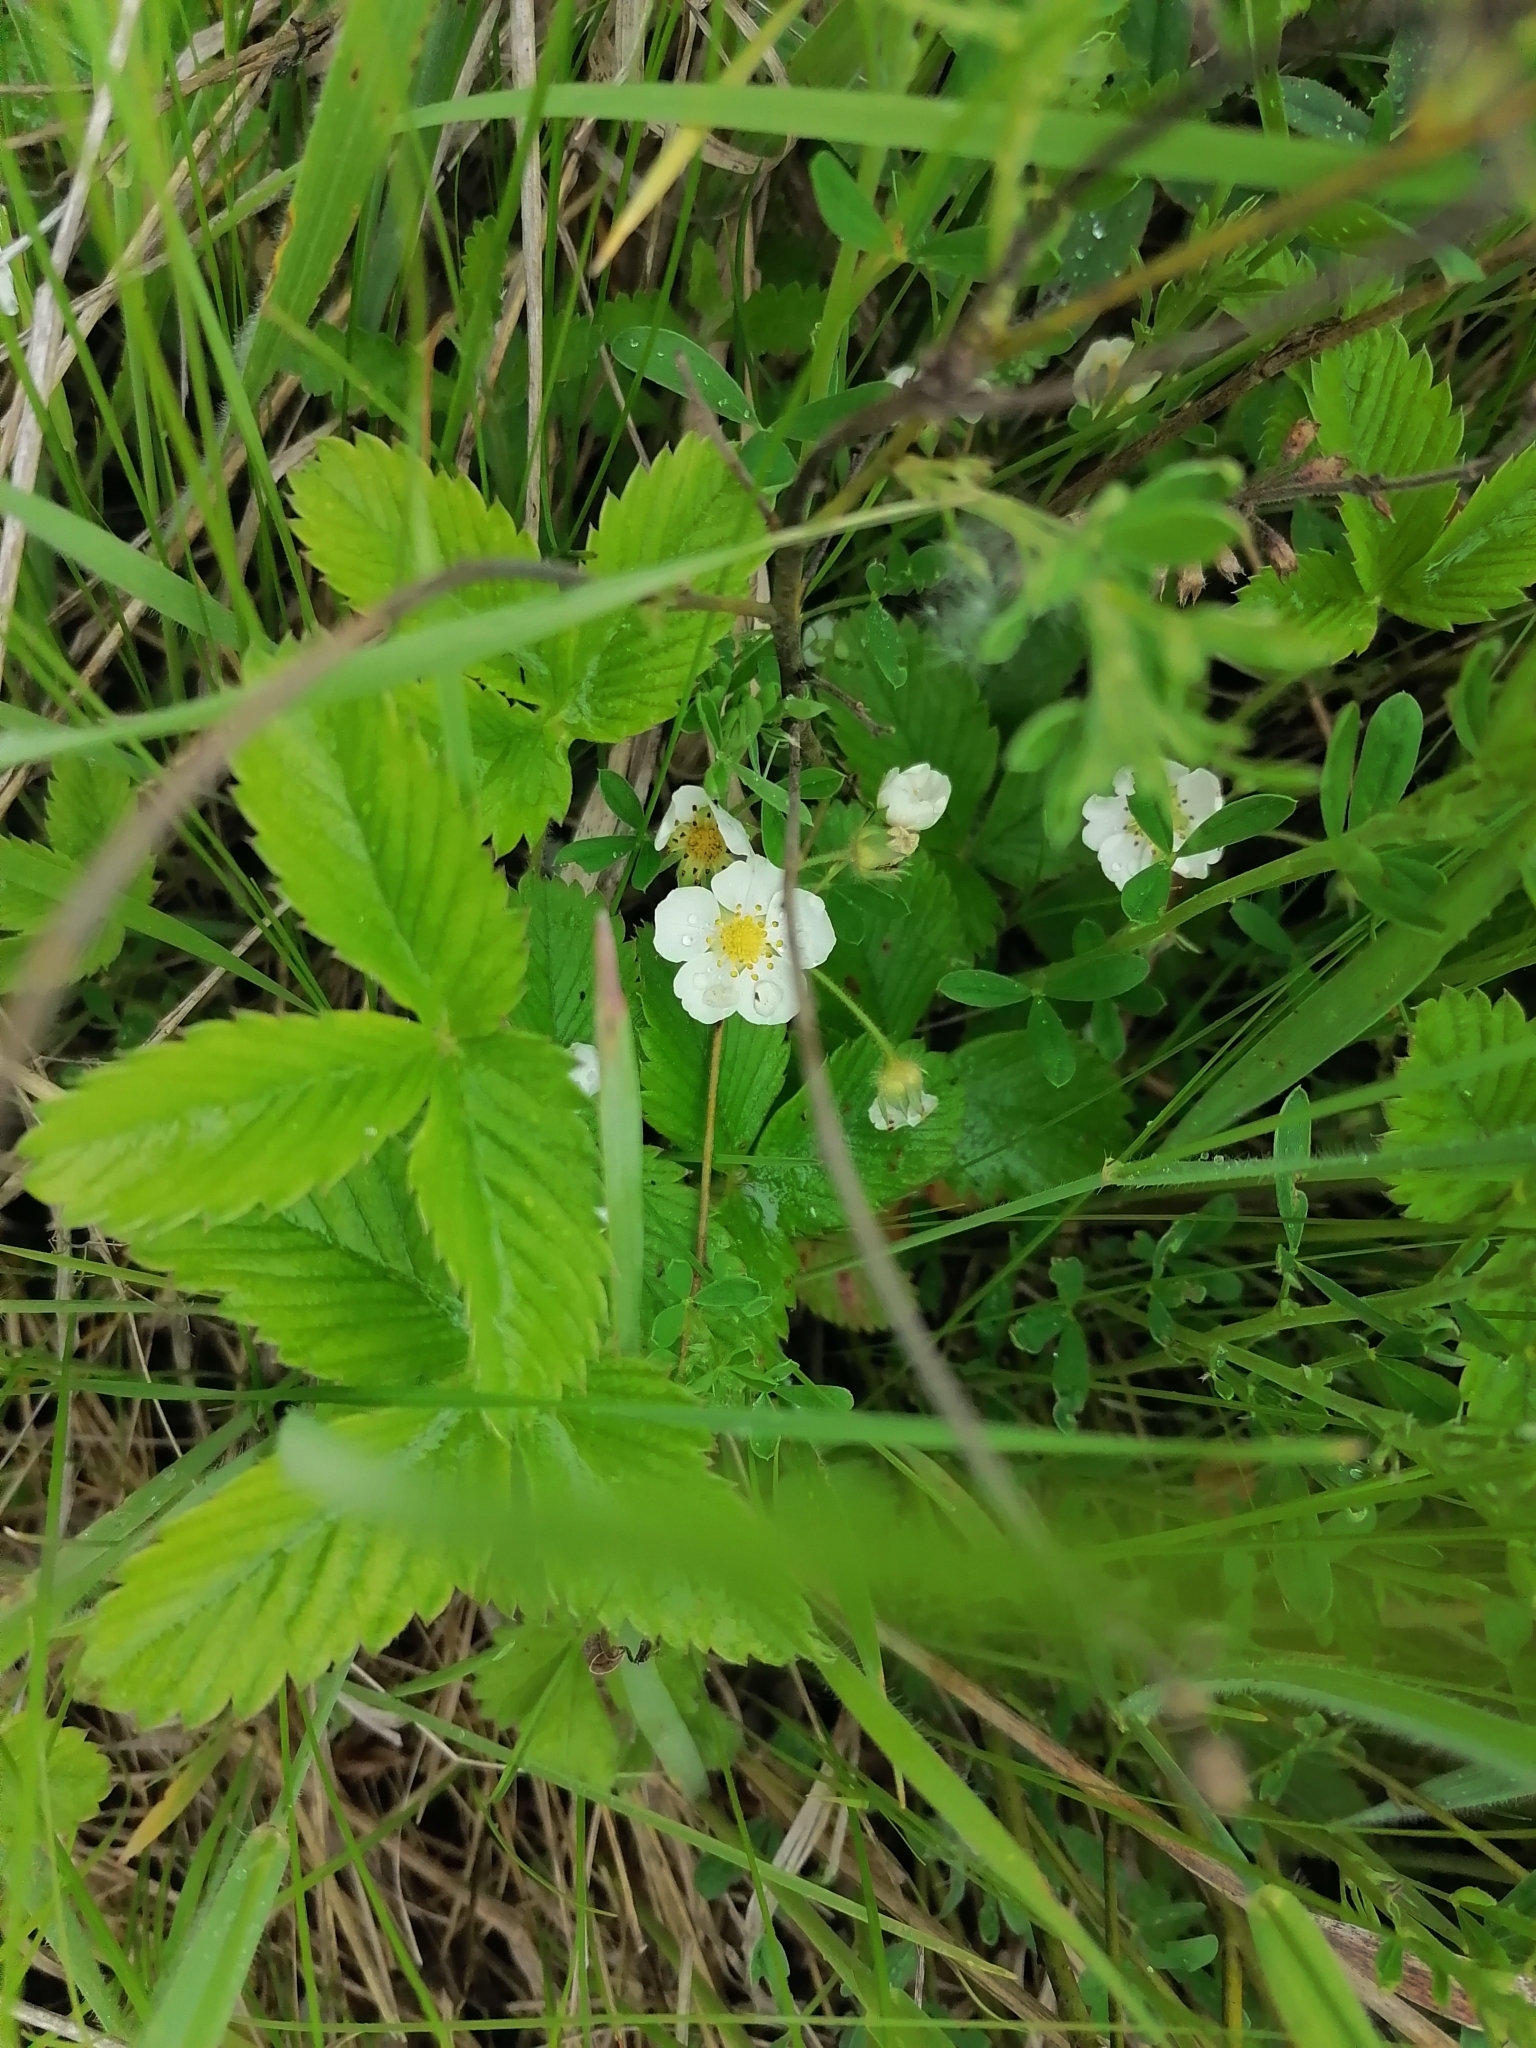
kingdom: Plantae
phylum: Tracheophyta
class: Magnoliopsida
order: Rosales
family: Rosaceae
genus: Fragaria
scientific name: Fragaria viridis
